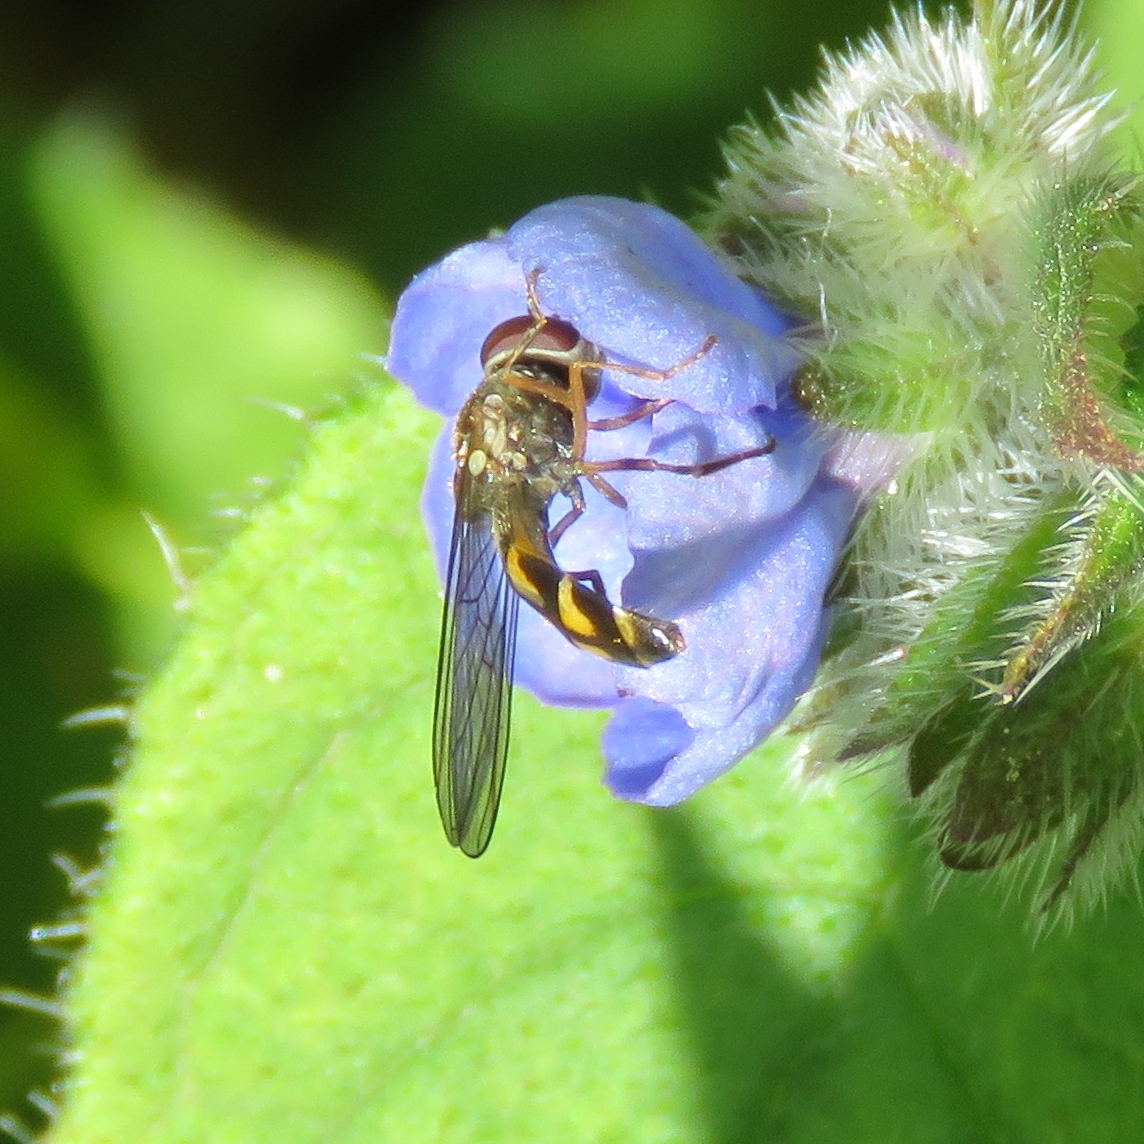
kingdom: Animalia
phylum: Arthropoda
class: Insecta
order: Diptera
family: Syrphidae
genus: Melanostoma
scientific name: Melanostoma
